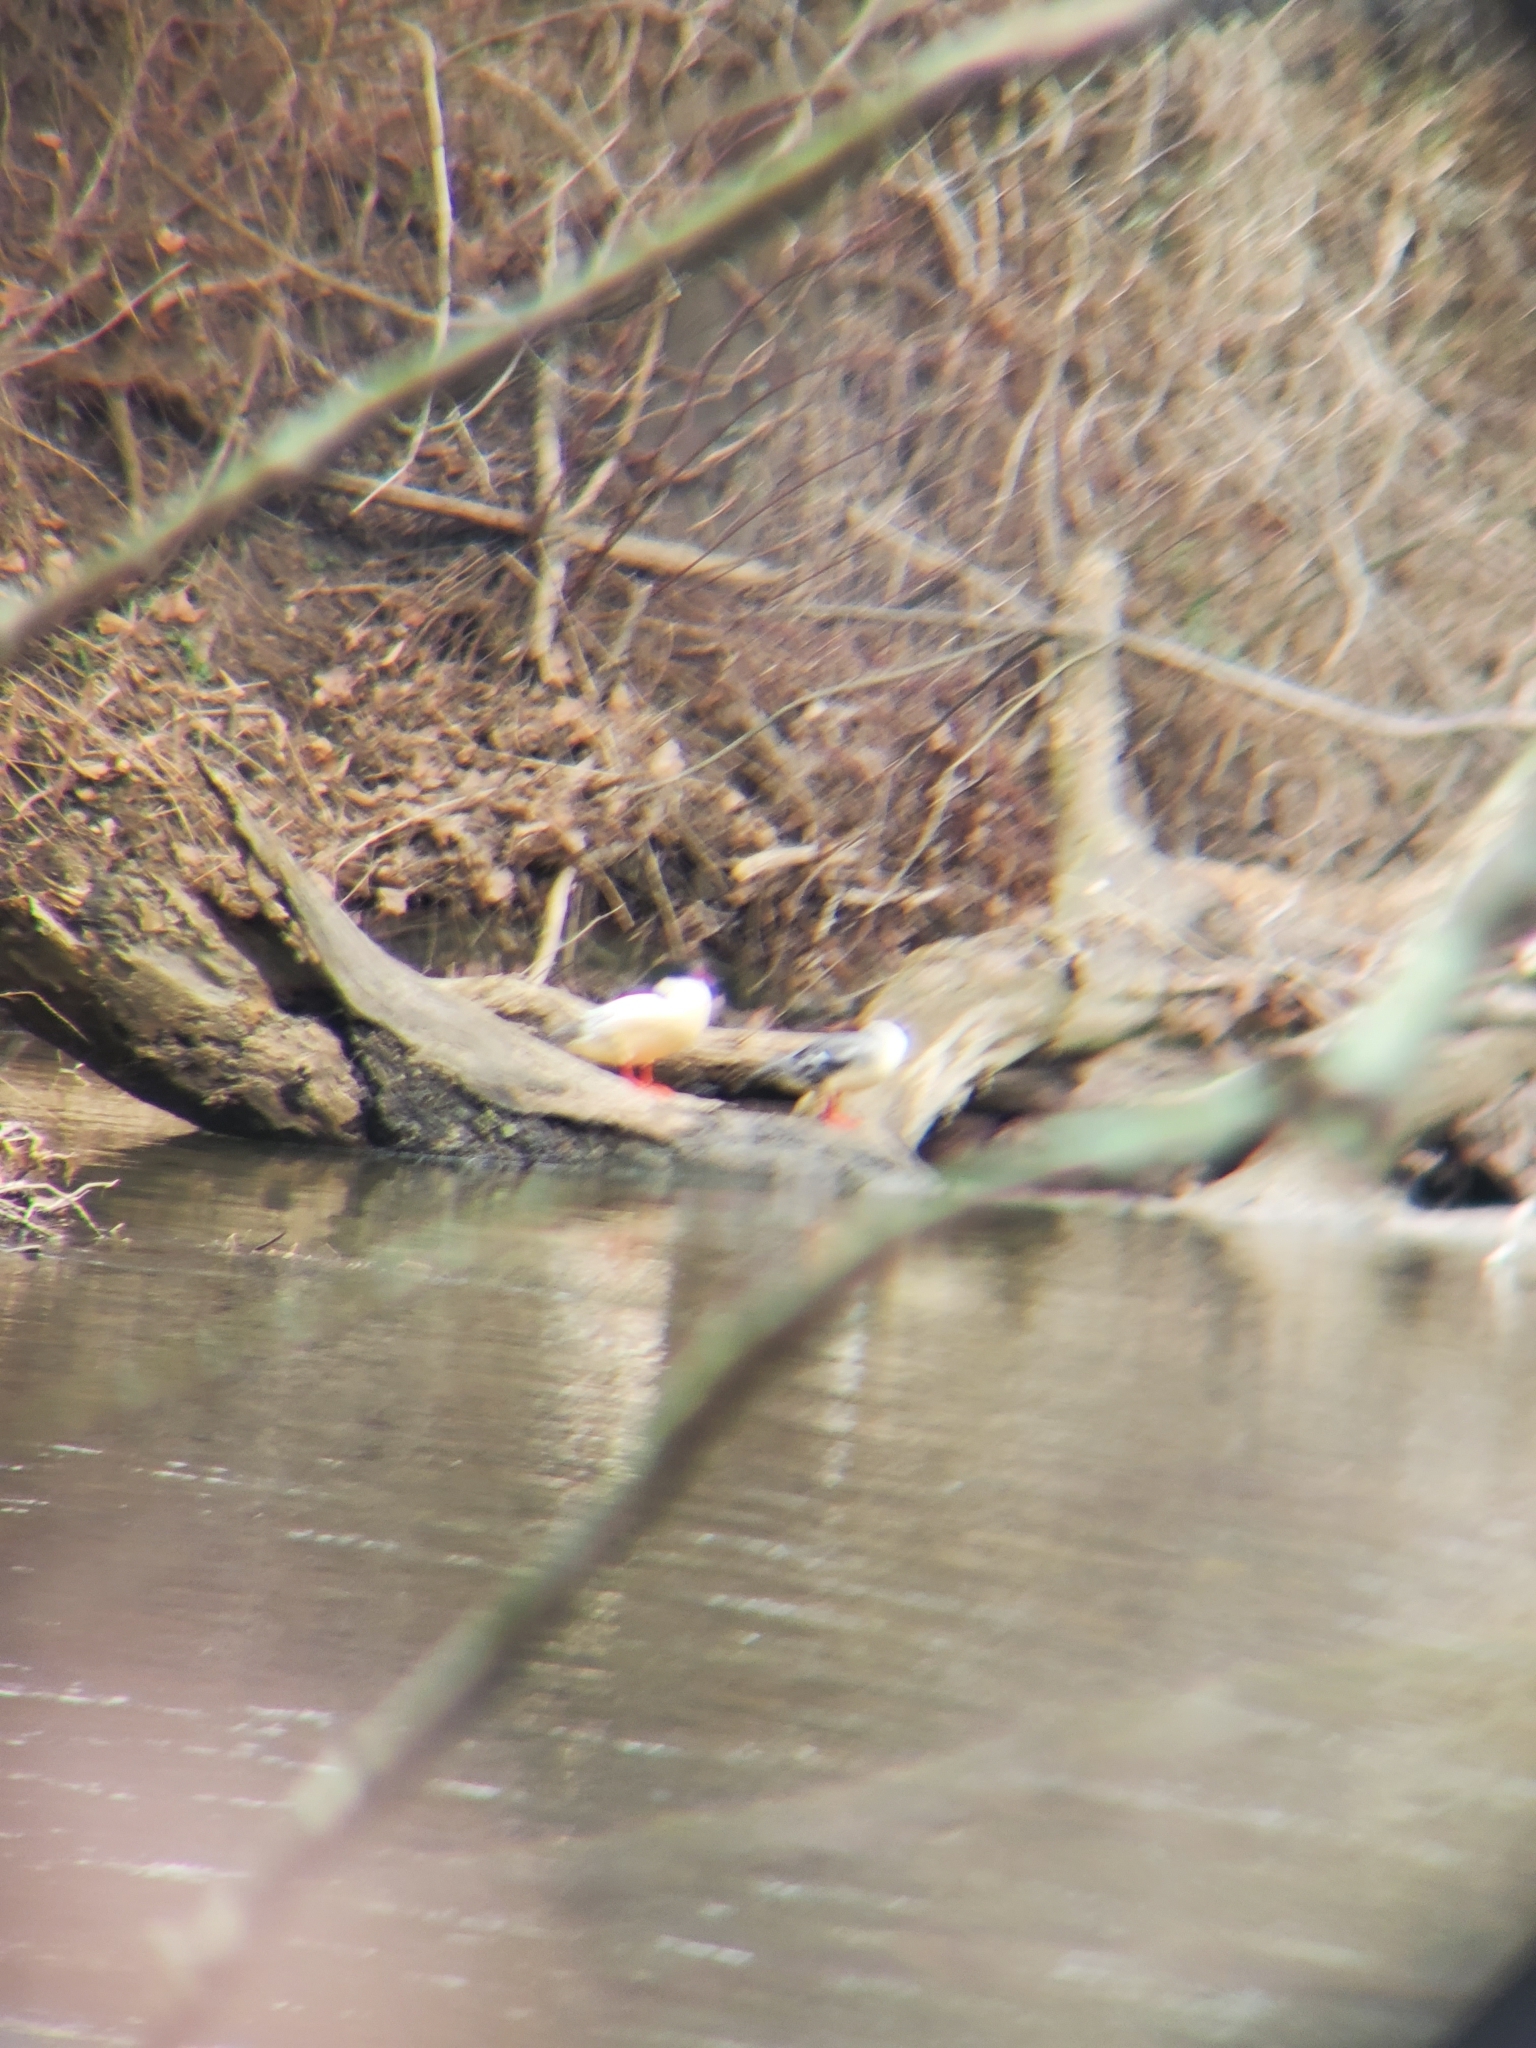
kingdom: Animalia
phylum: Chordata
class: Aves
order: Anseriformes
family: Anatidae
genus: Mergus
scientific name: Mergus merganser
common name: Common merganser
